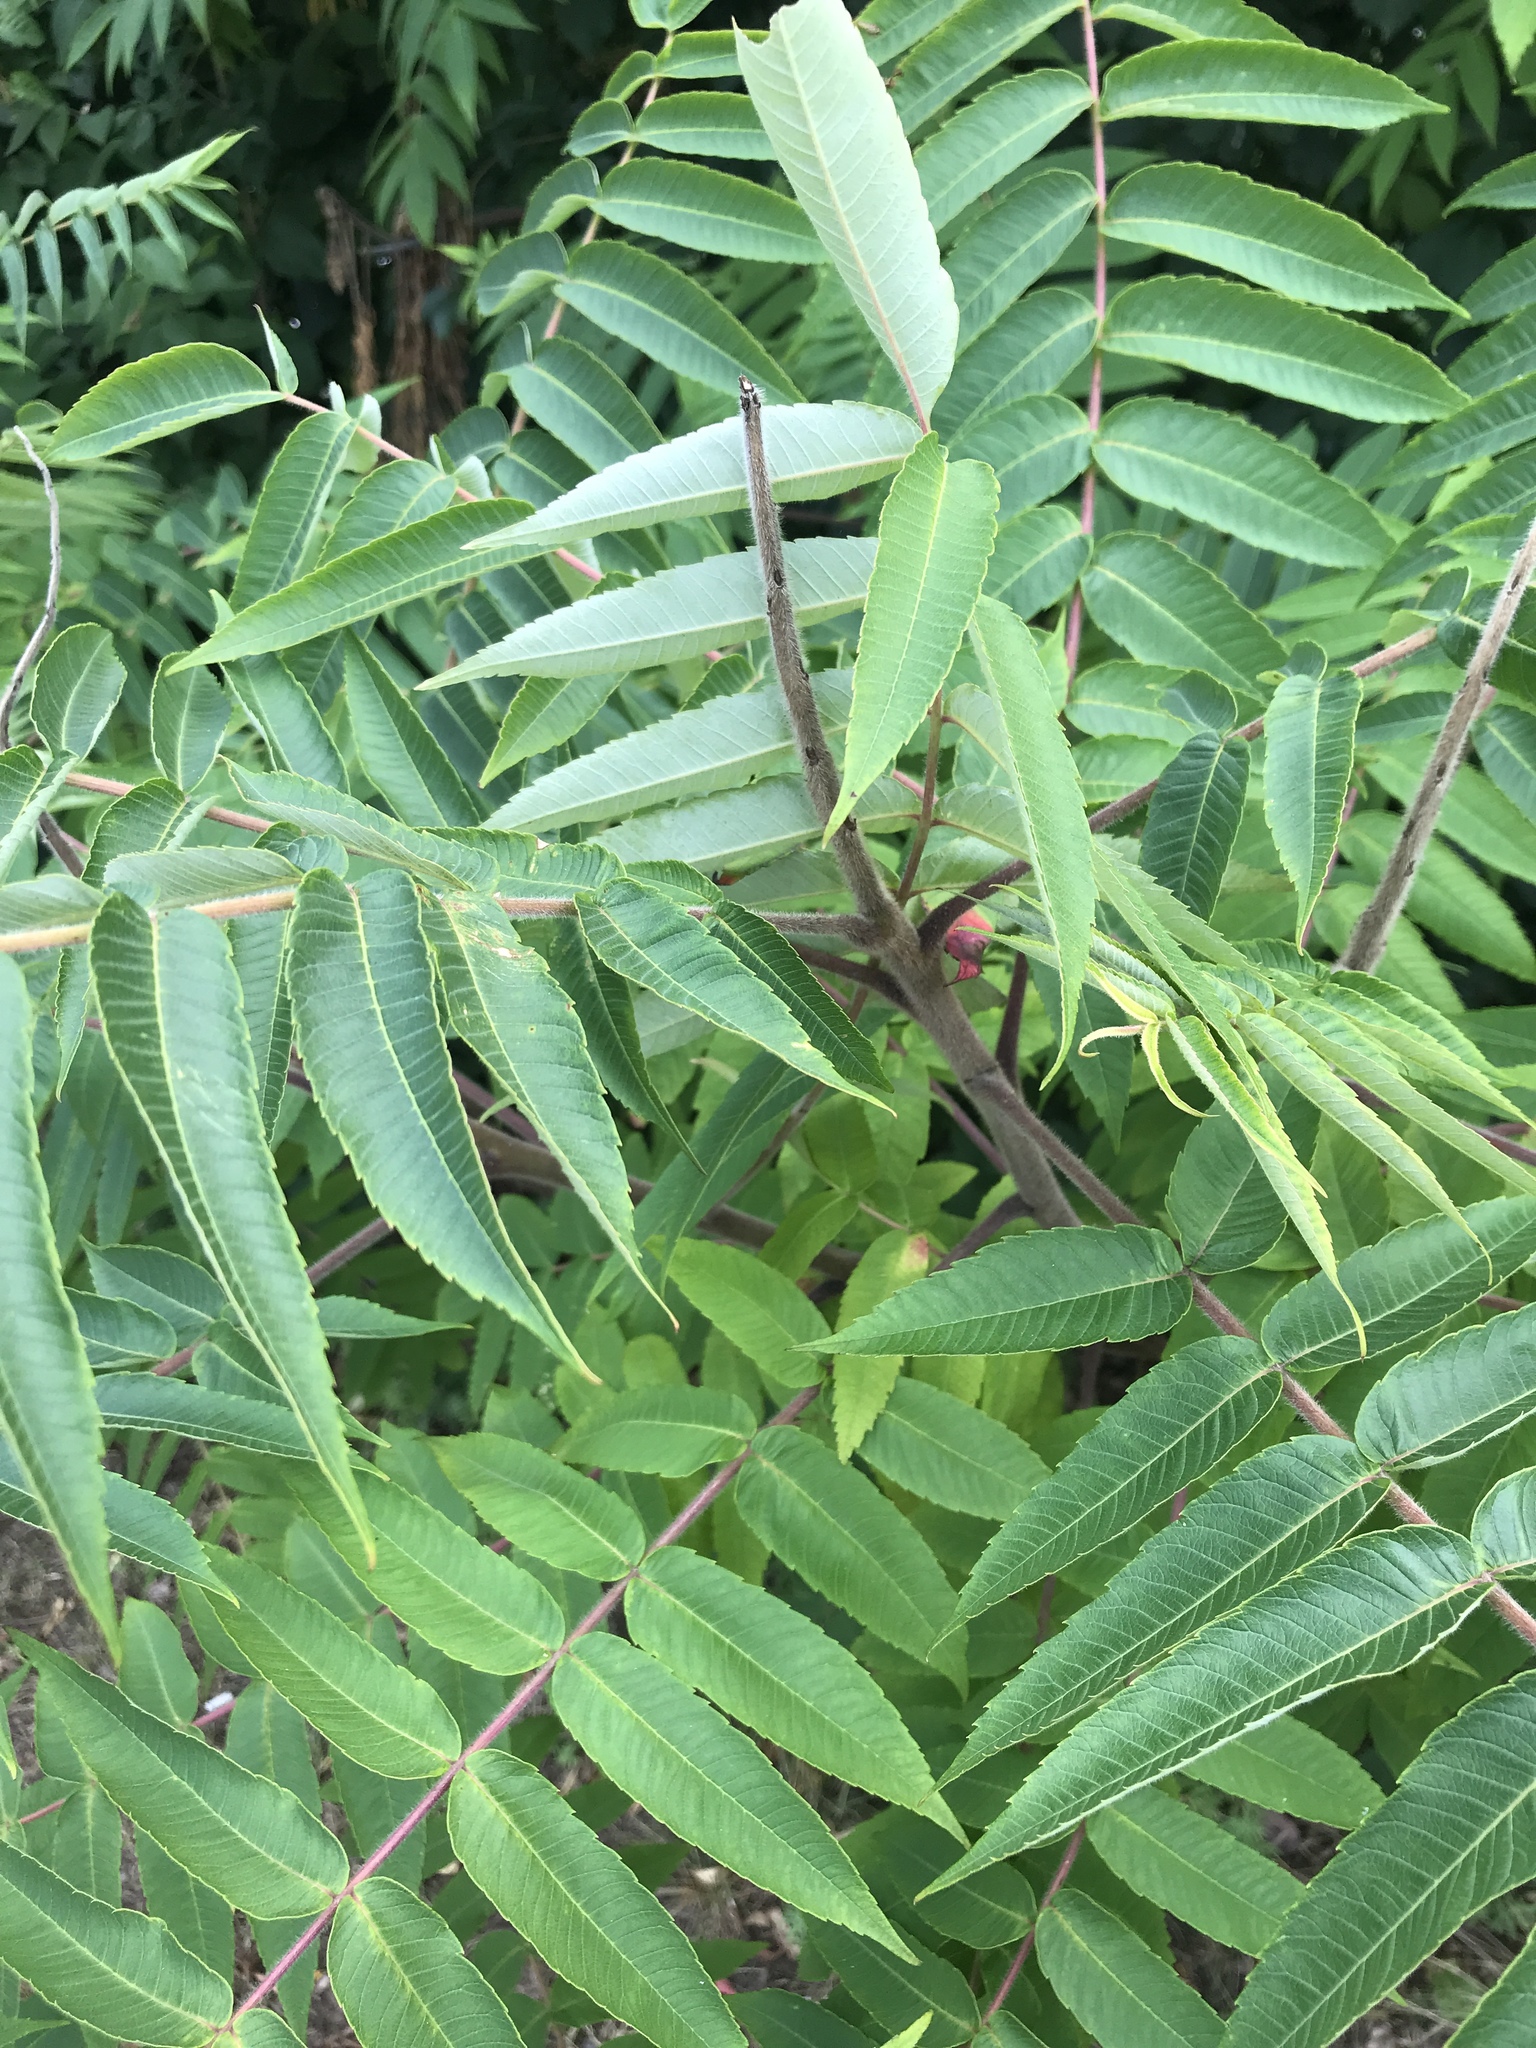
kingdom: Plantae
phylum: Tracheophyta
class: Magnoliopsida
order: Sapindales
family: Anacardiaceae
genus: Rhus
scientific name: Rhus typhina
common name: Staghorn sumac
